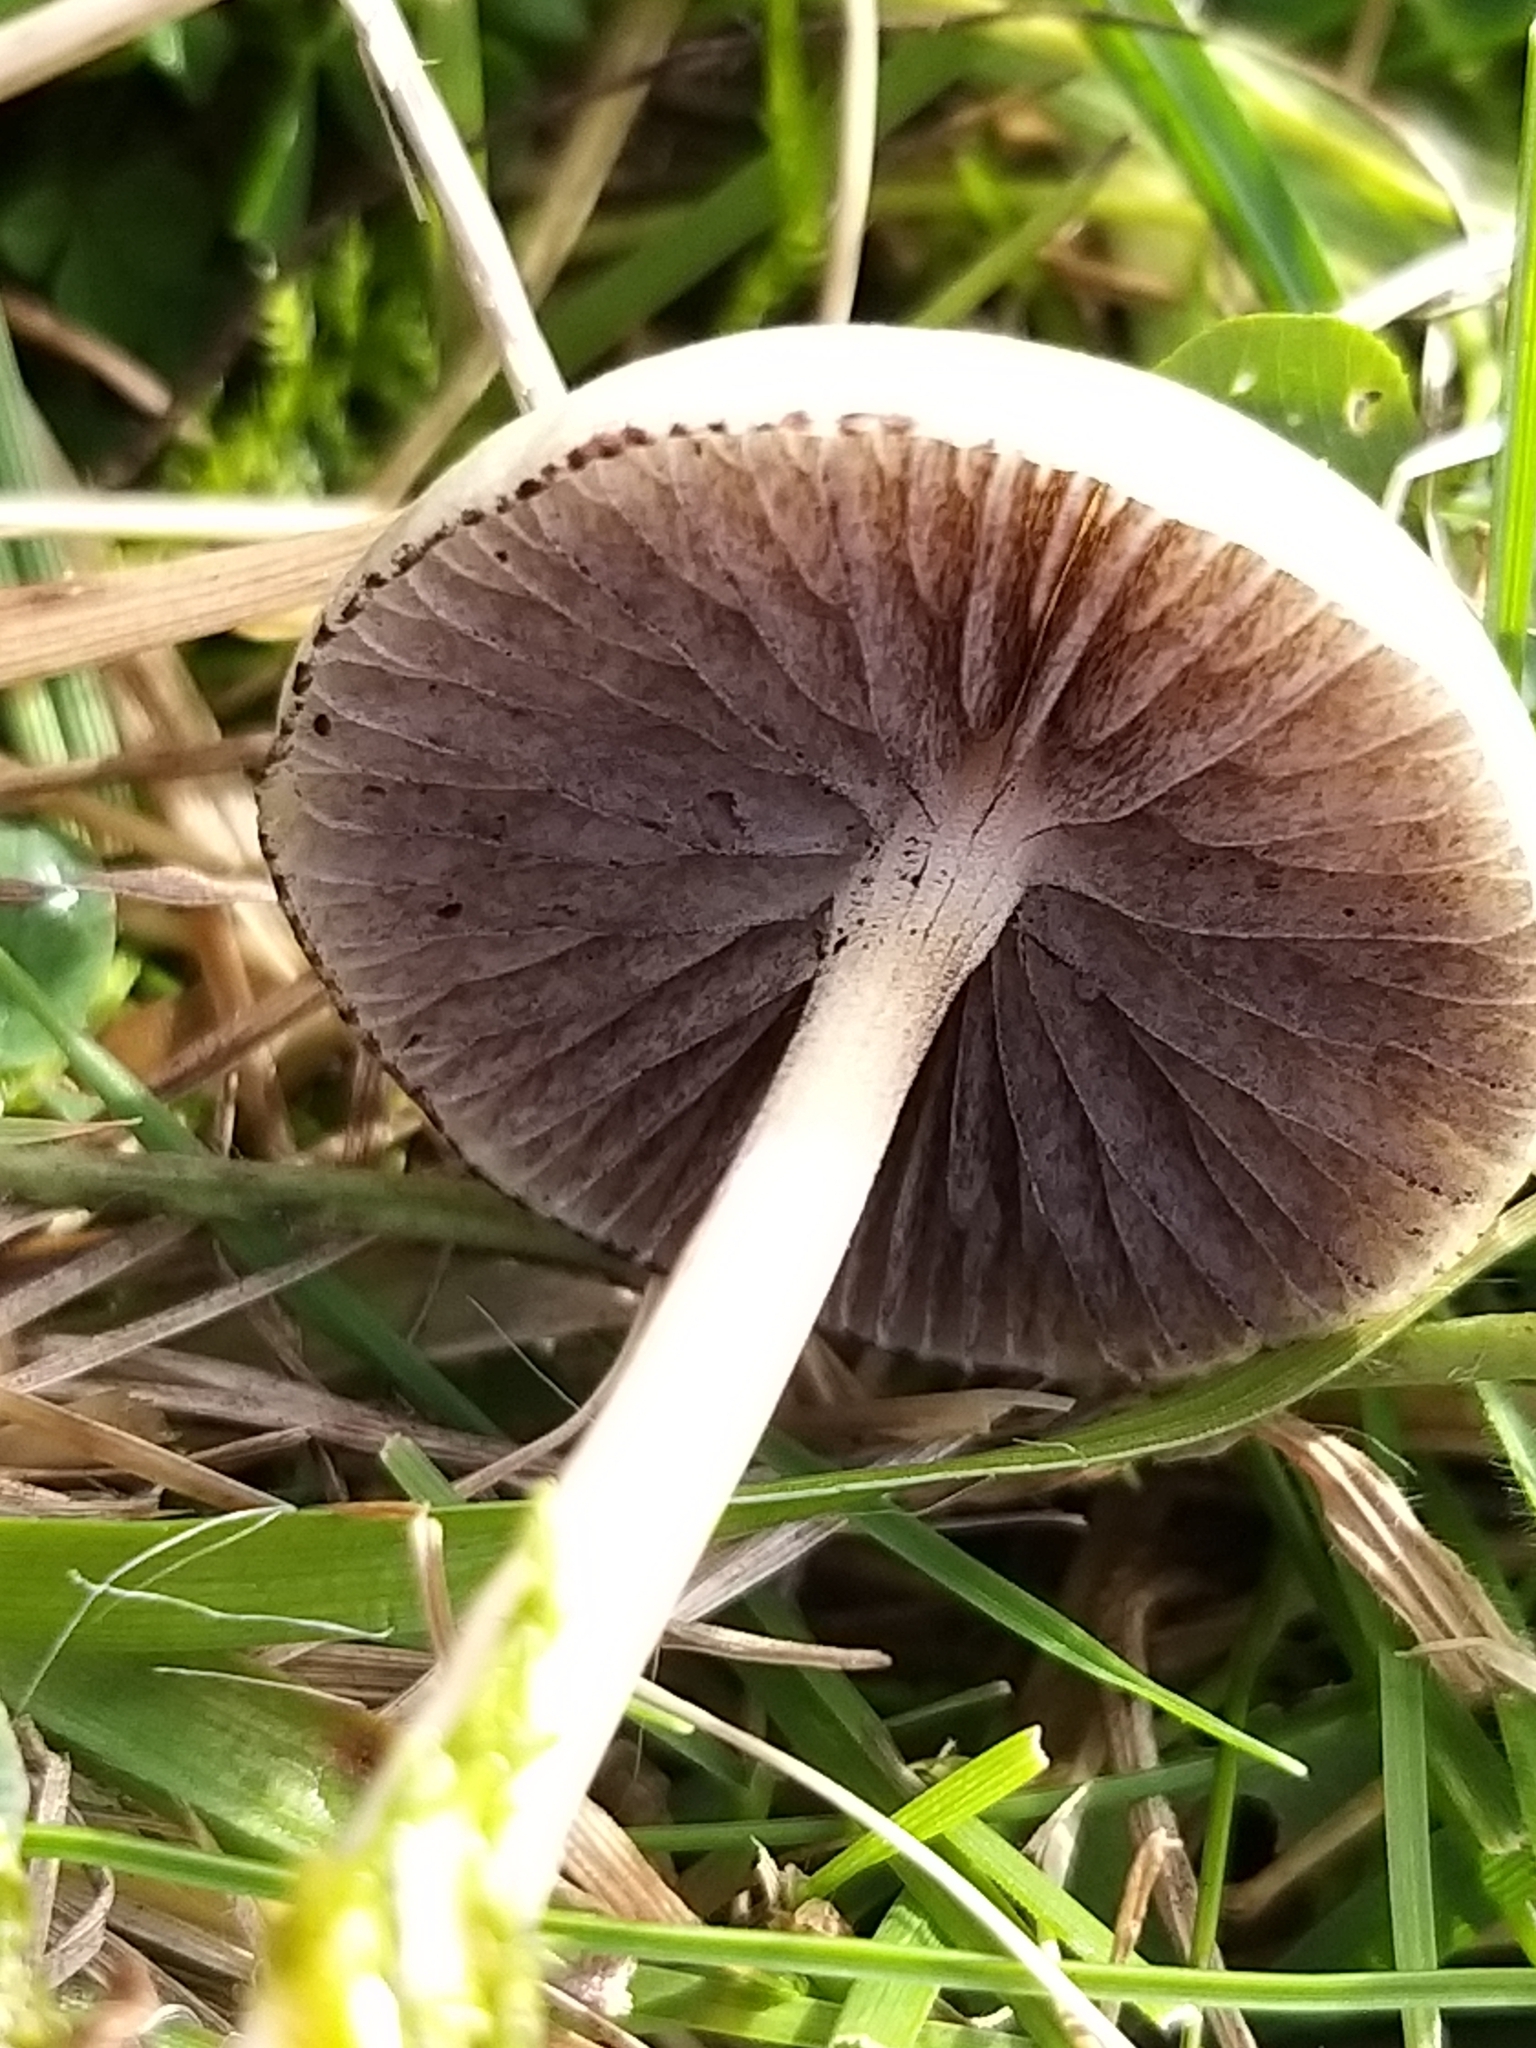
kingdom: Fungi
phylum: Basidiomycota
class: Agaricomycetes
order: Agaricales
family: Strophariaceae
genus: Protostropharia
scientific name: Protostropharia semiglobata
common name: Dung roundhead
